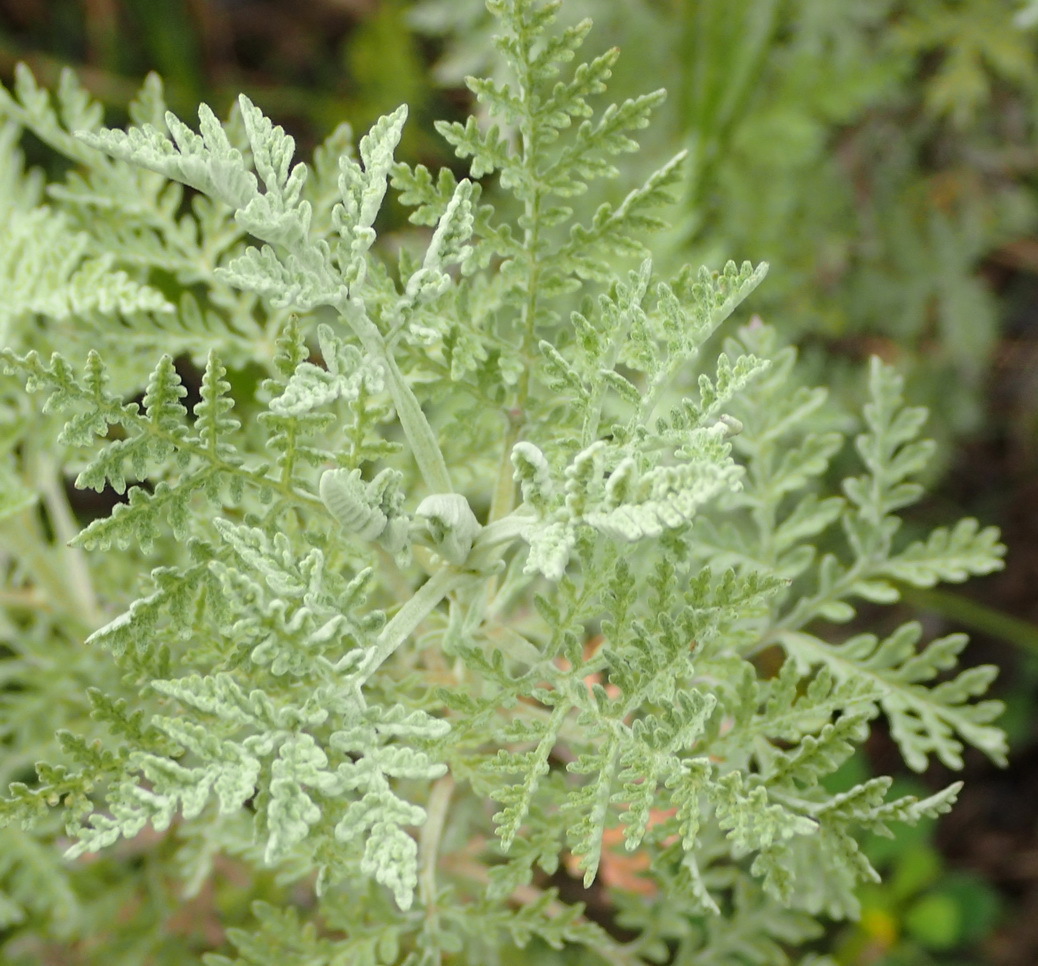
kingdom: Plantae
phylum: Tracheophyta
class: Magnoliopsida
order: Asterales
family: Asteraceae
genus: Artemisia
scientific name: Artemisia afra
